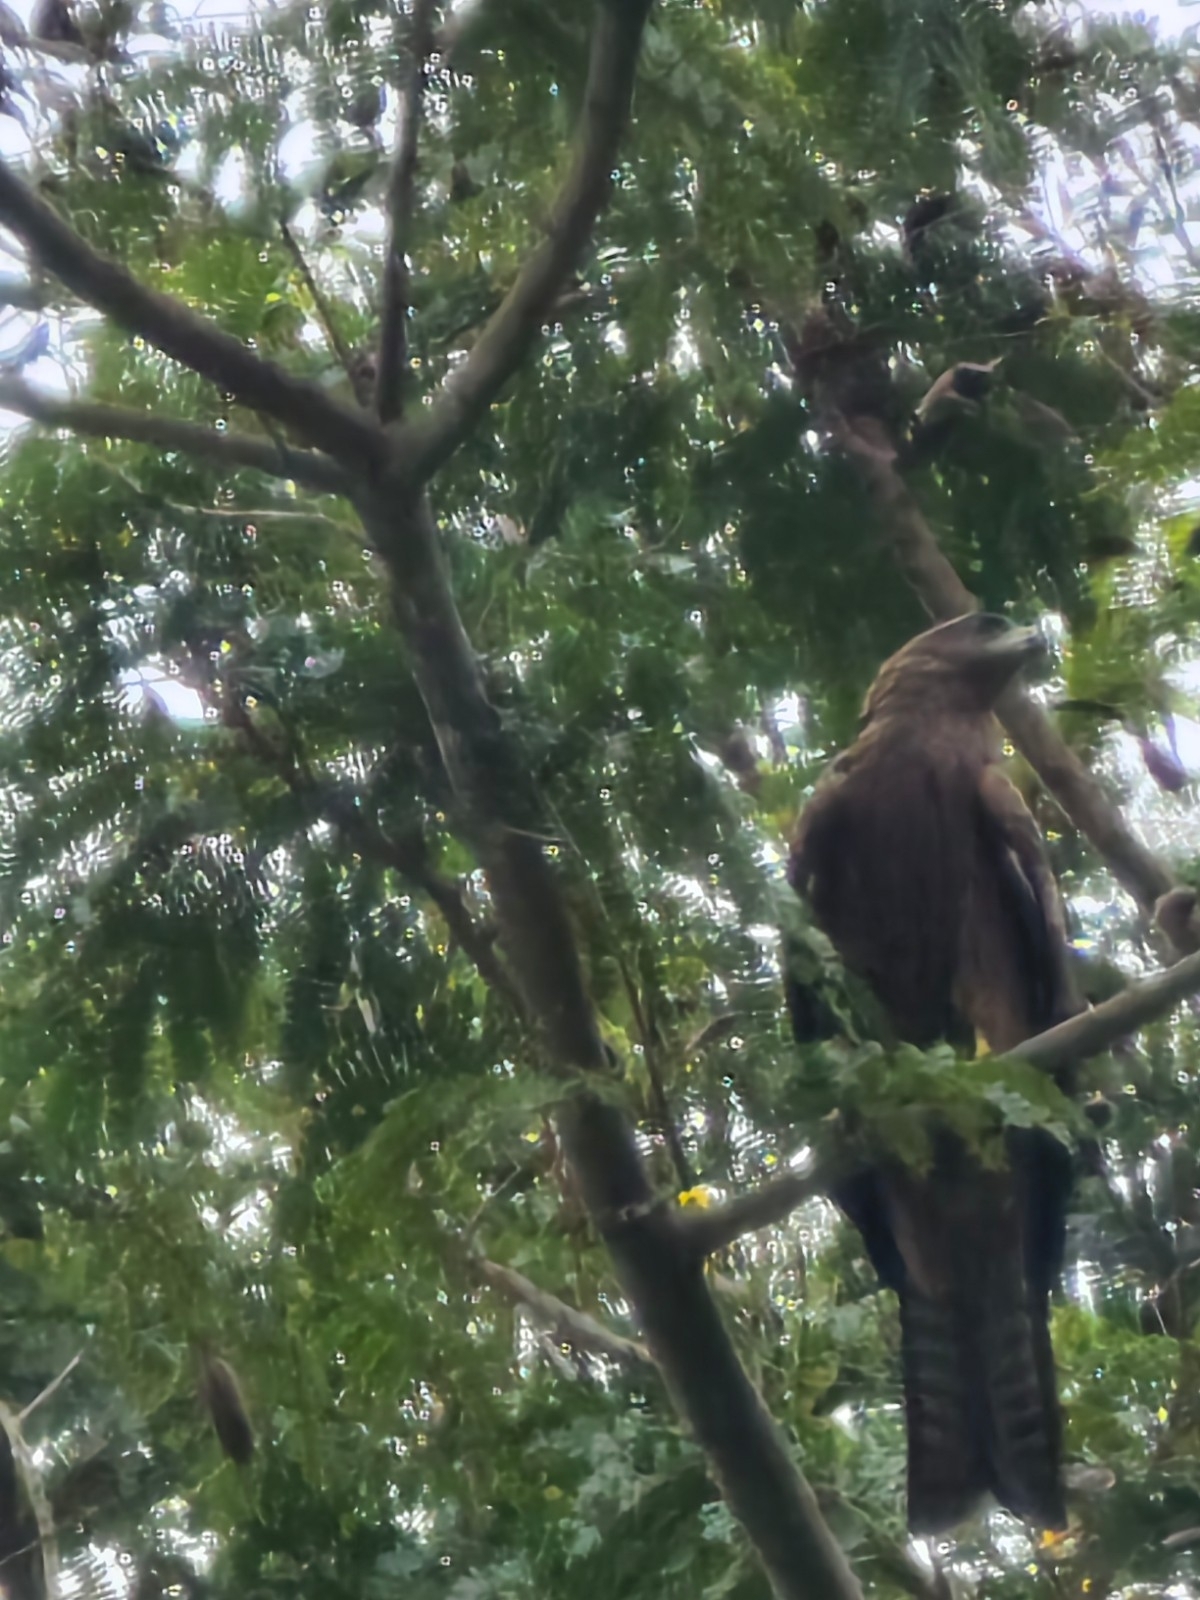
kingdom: Animalia
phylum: Chordata
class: Aves
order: Accipitriformes
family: Accipitridae
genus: Milvus
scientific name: Milvus migrans
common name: Black kite
